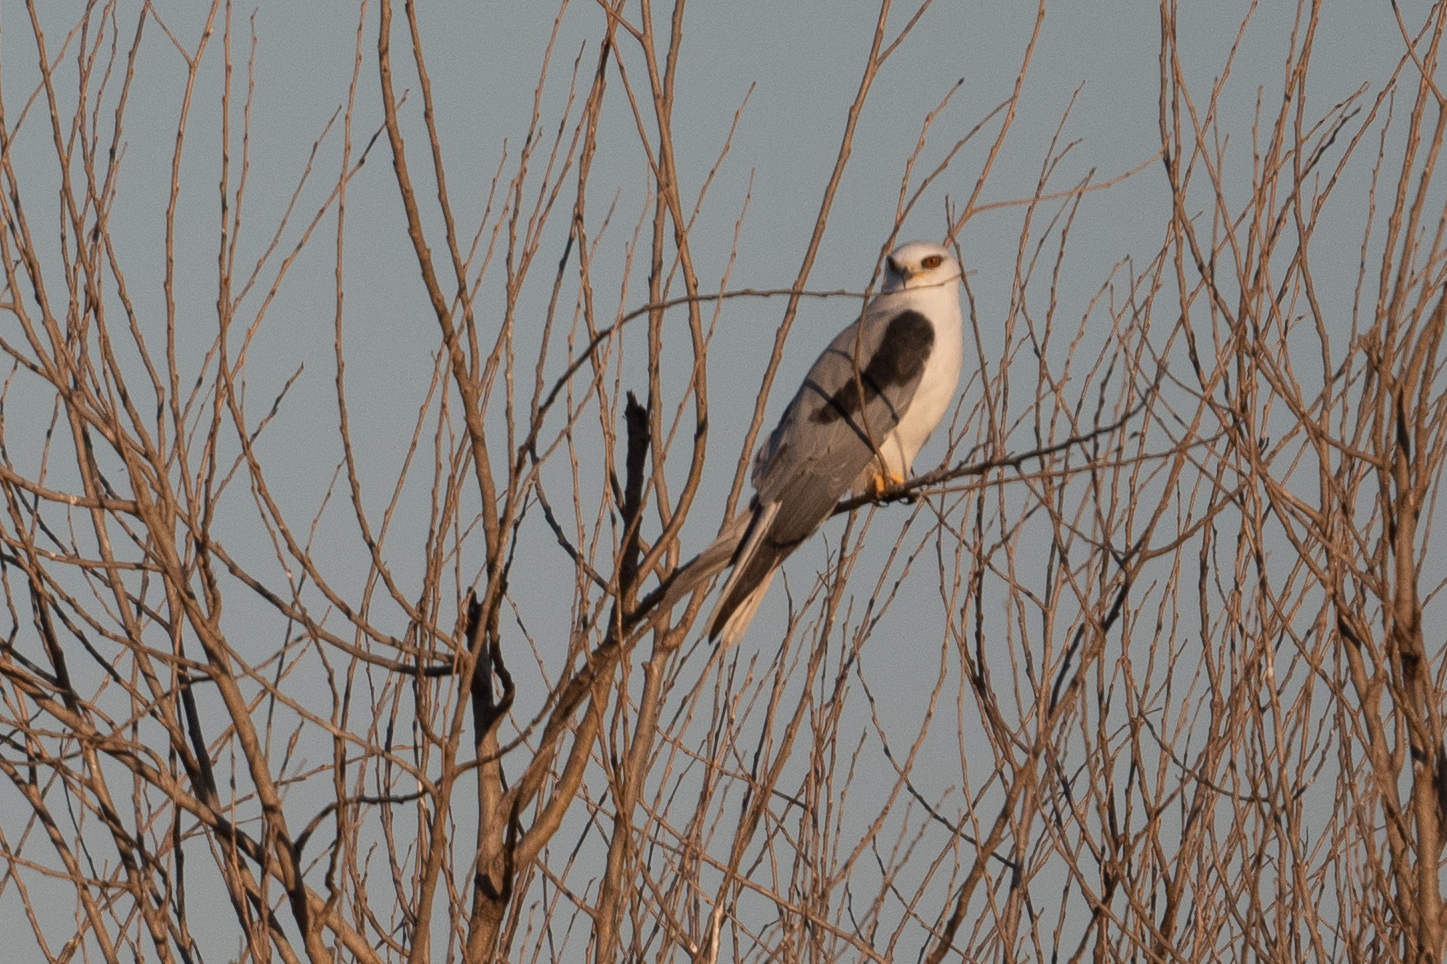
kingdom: Animalia
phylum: Chordata
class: Aves
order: Accipitriformes
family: Accipitridae
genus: Elanus
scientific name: Elanus leucurus
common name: White-tailed kite
